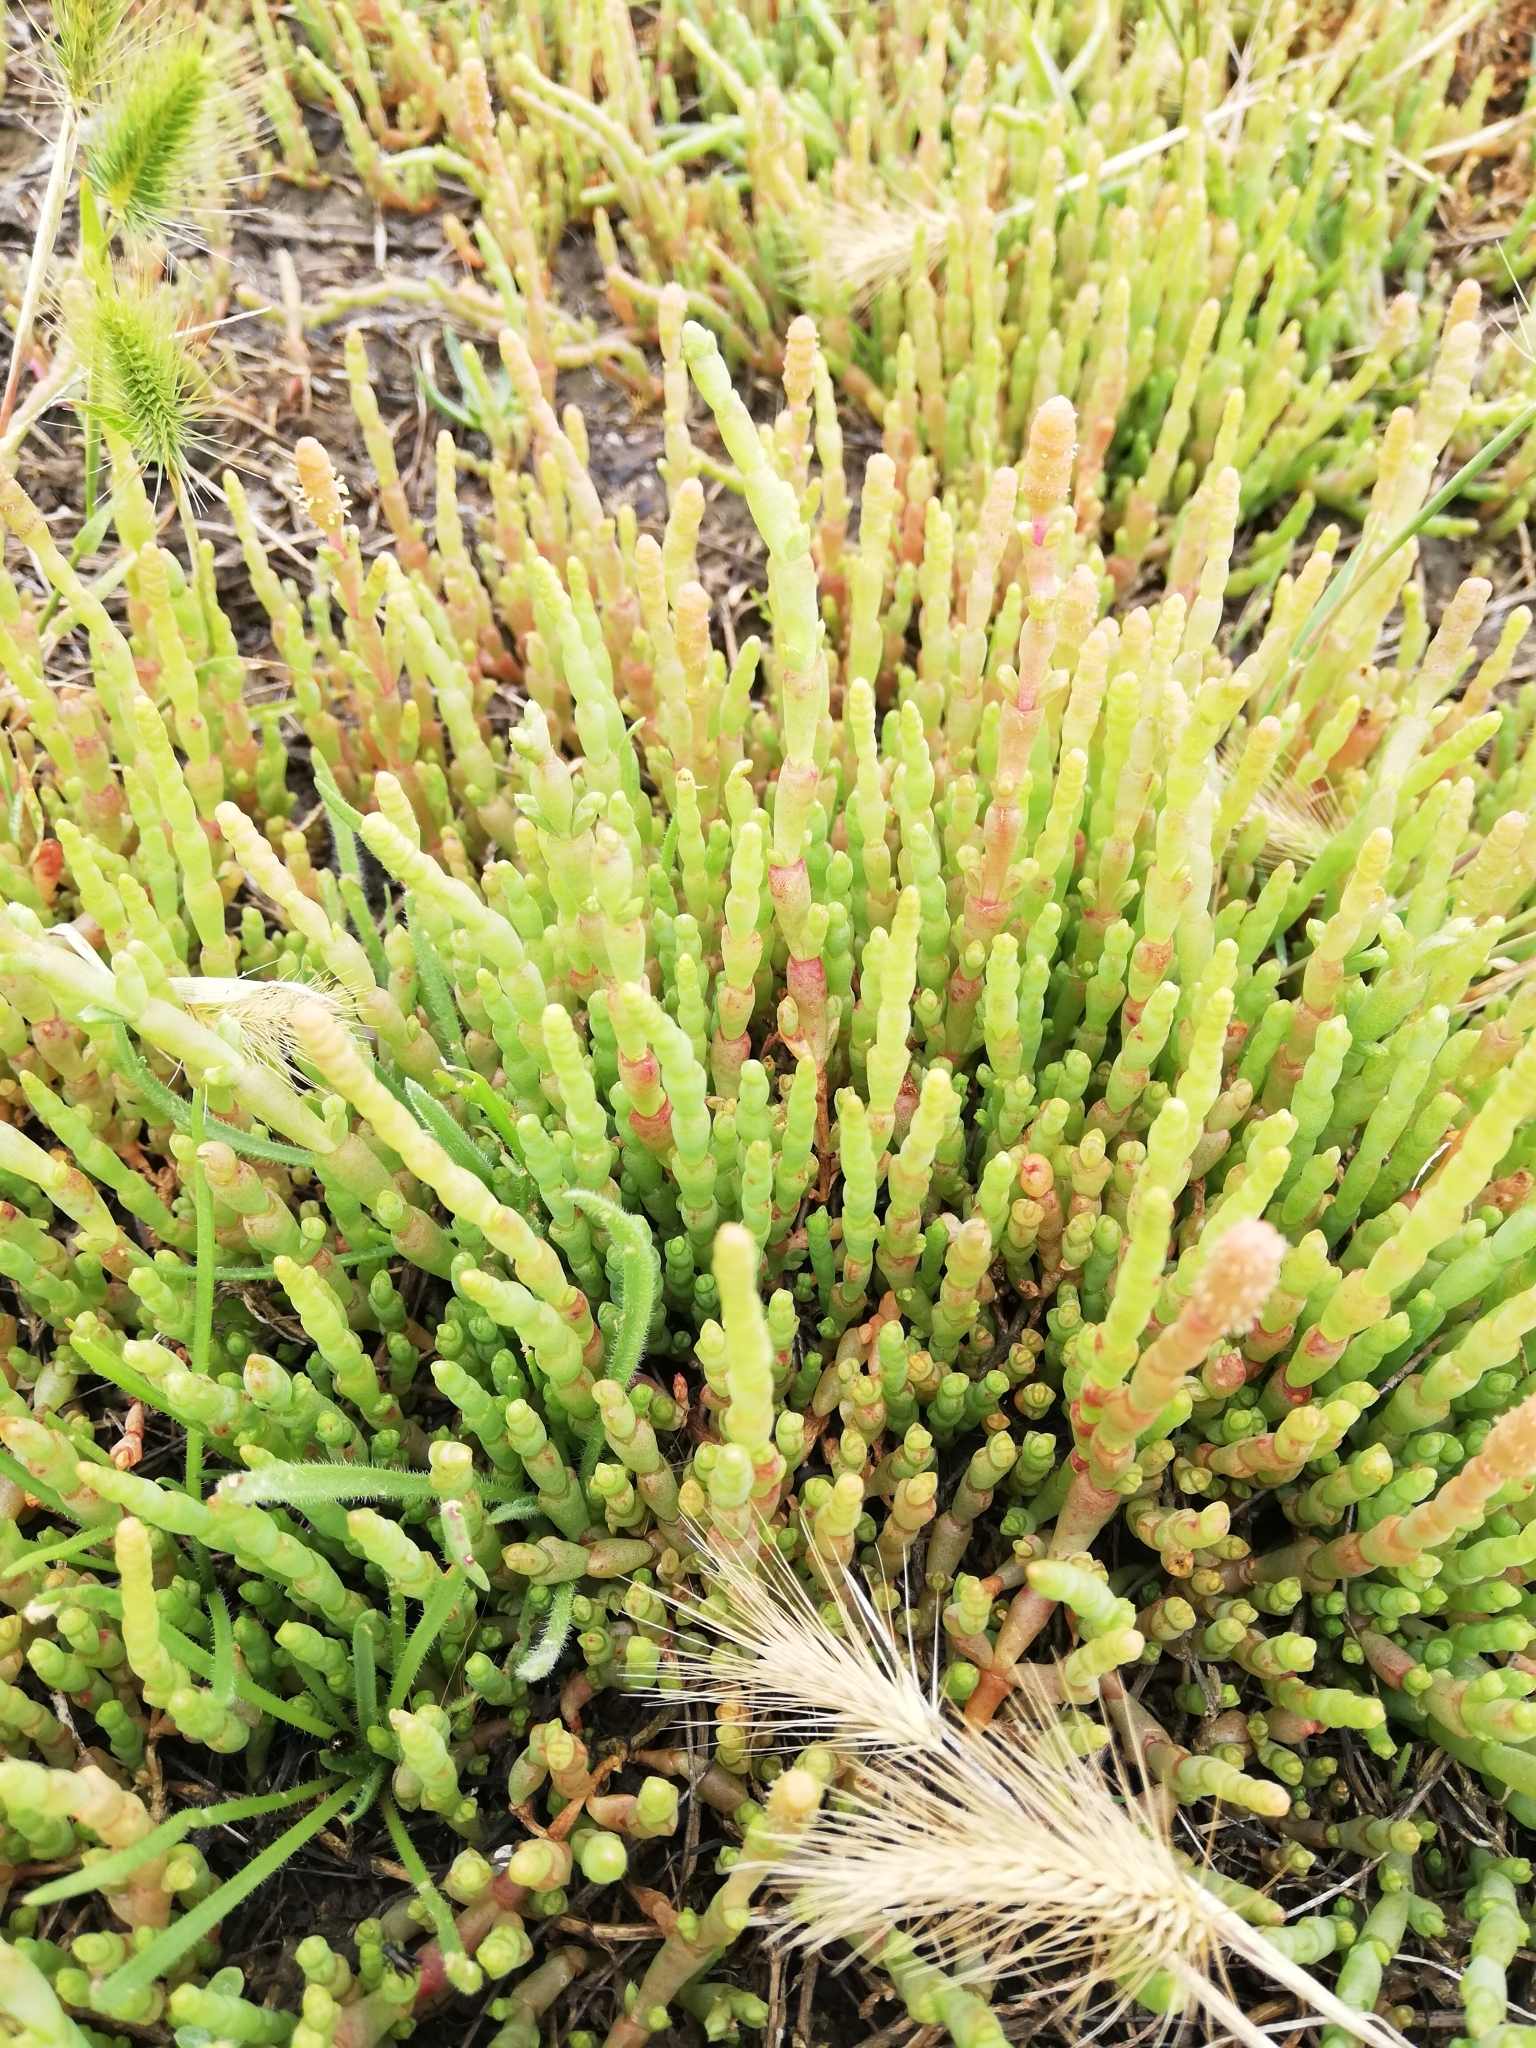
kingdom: Plantae
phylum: Tracheophyta
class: Magnoliopsida
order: Caryophyllales
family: Amaranthaceae
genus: Salicornia
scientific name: Salicornia quinqueflora
